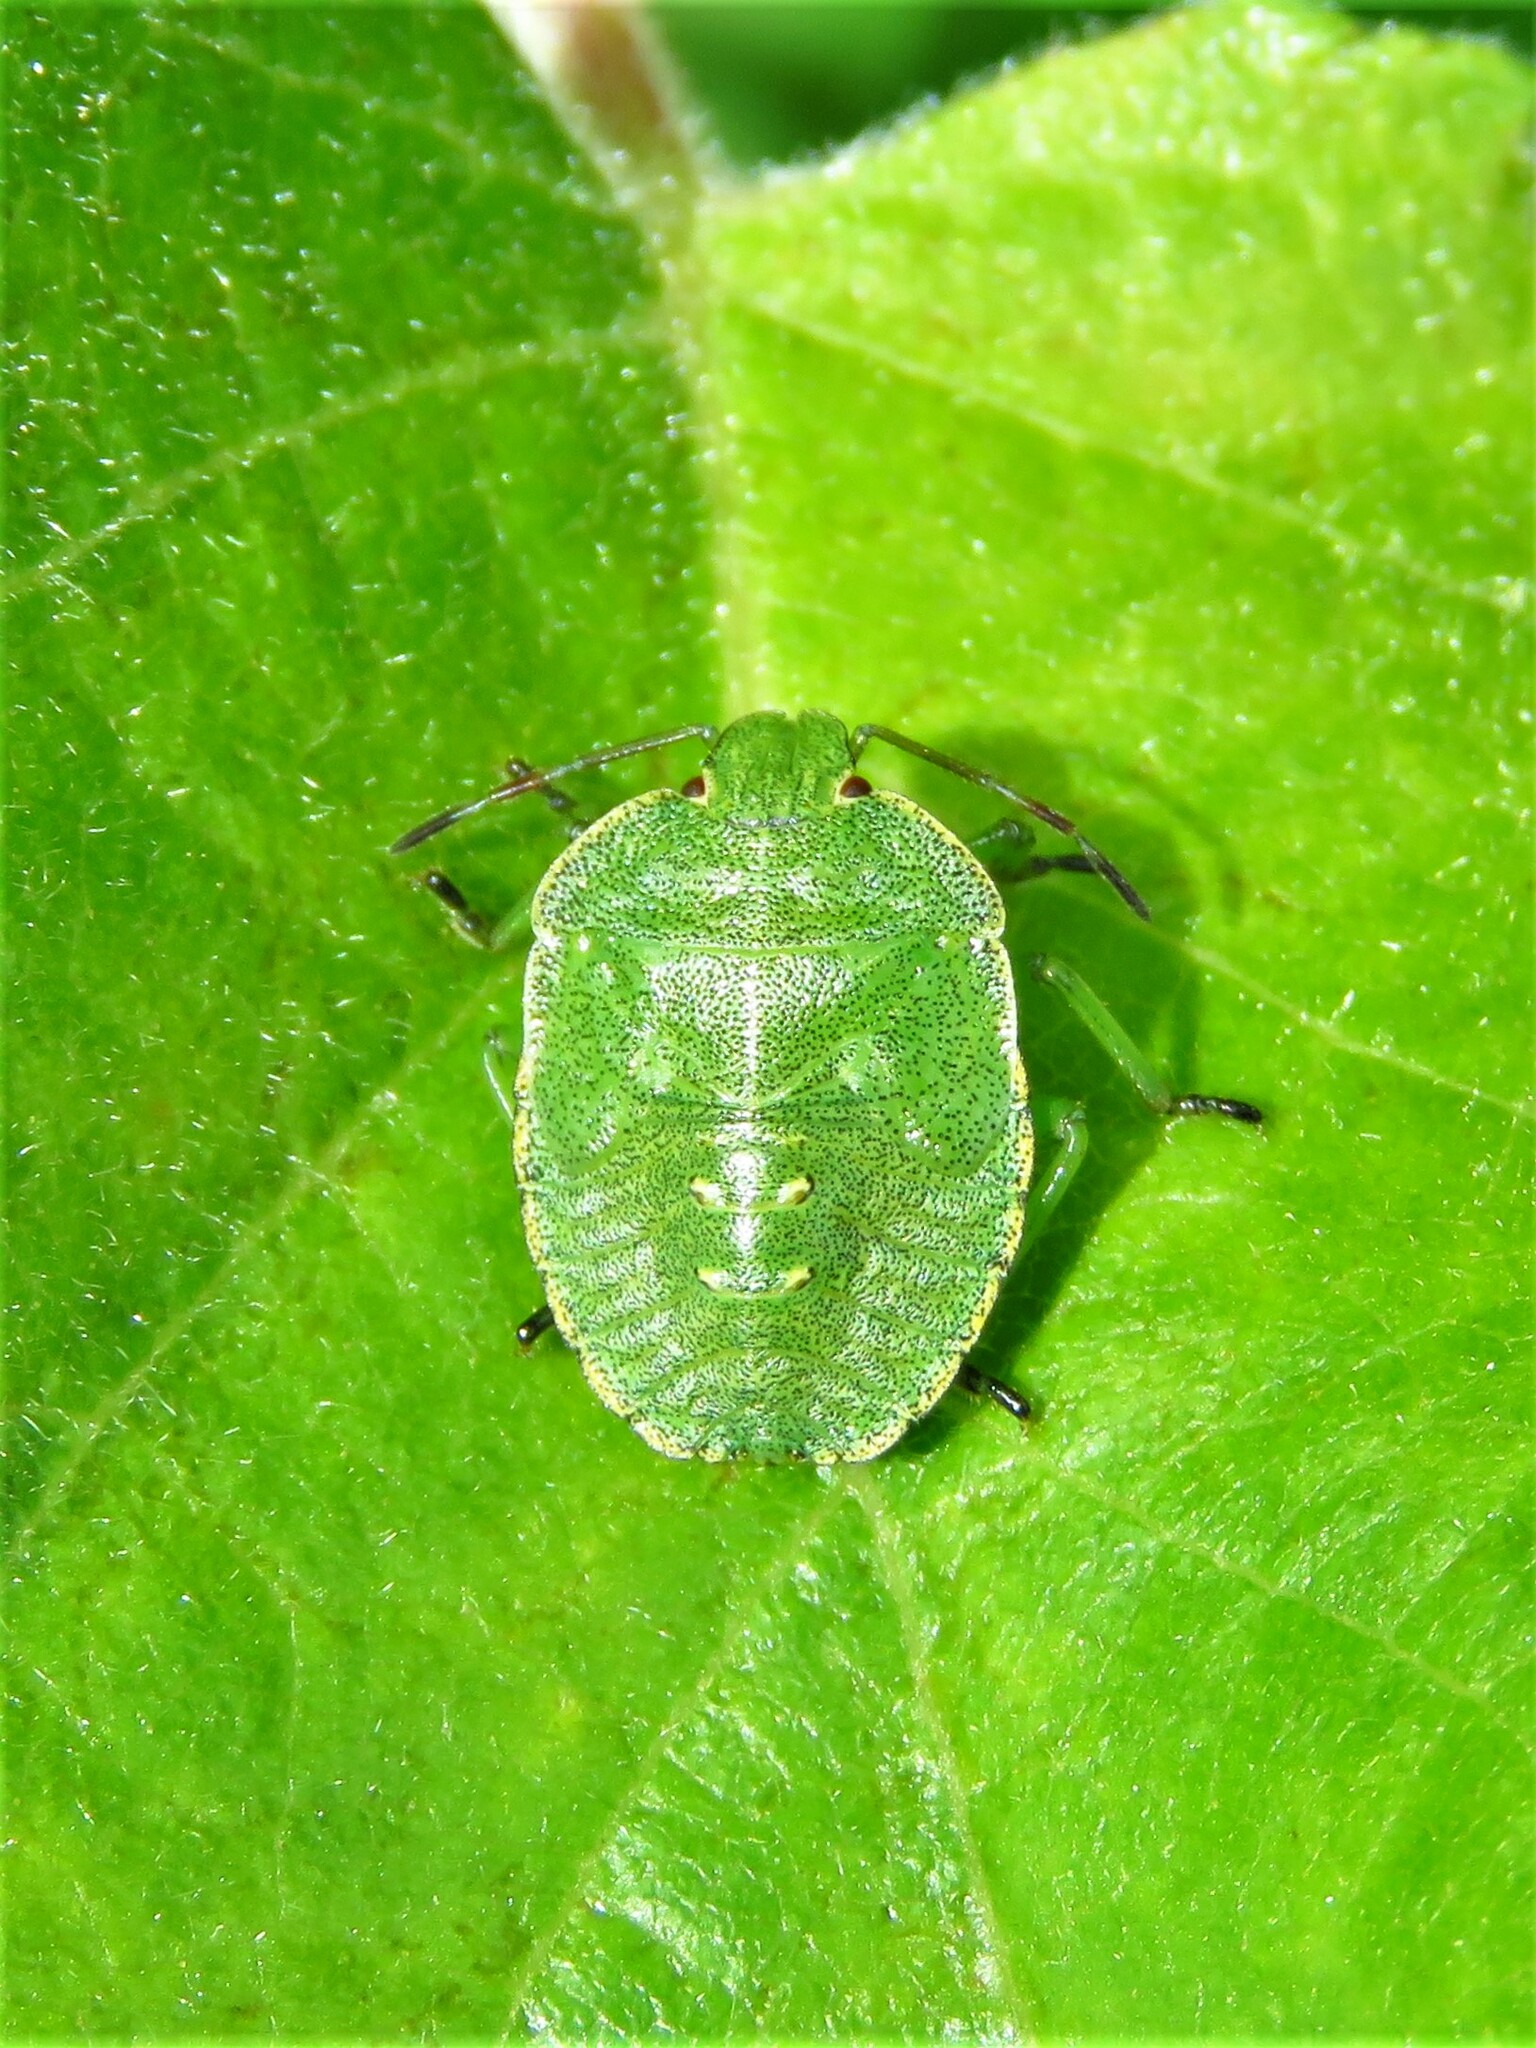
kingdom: Animalia
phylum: Arthropoda
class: Insecta
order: Hemiptera
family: Pentatomidae
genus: Palomena
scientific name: Palomena prasina
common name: Green shieldbug
